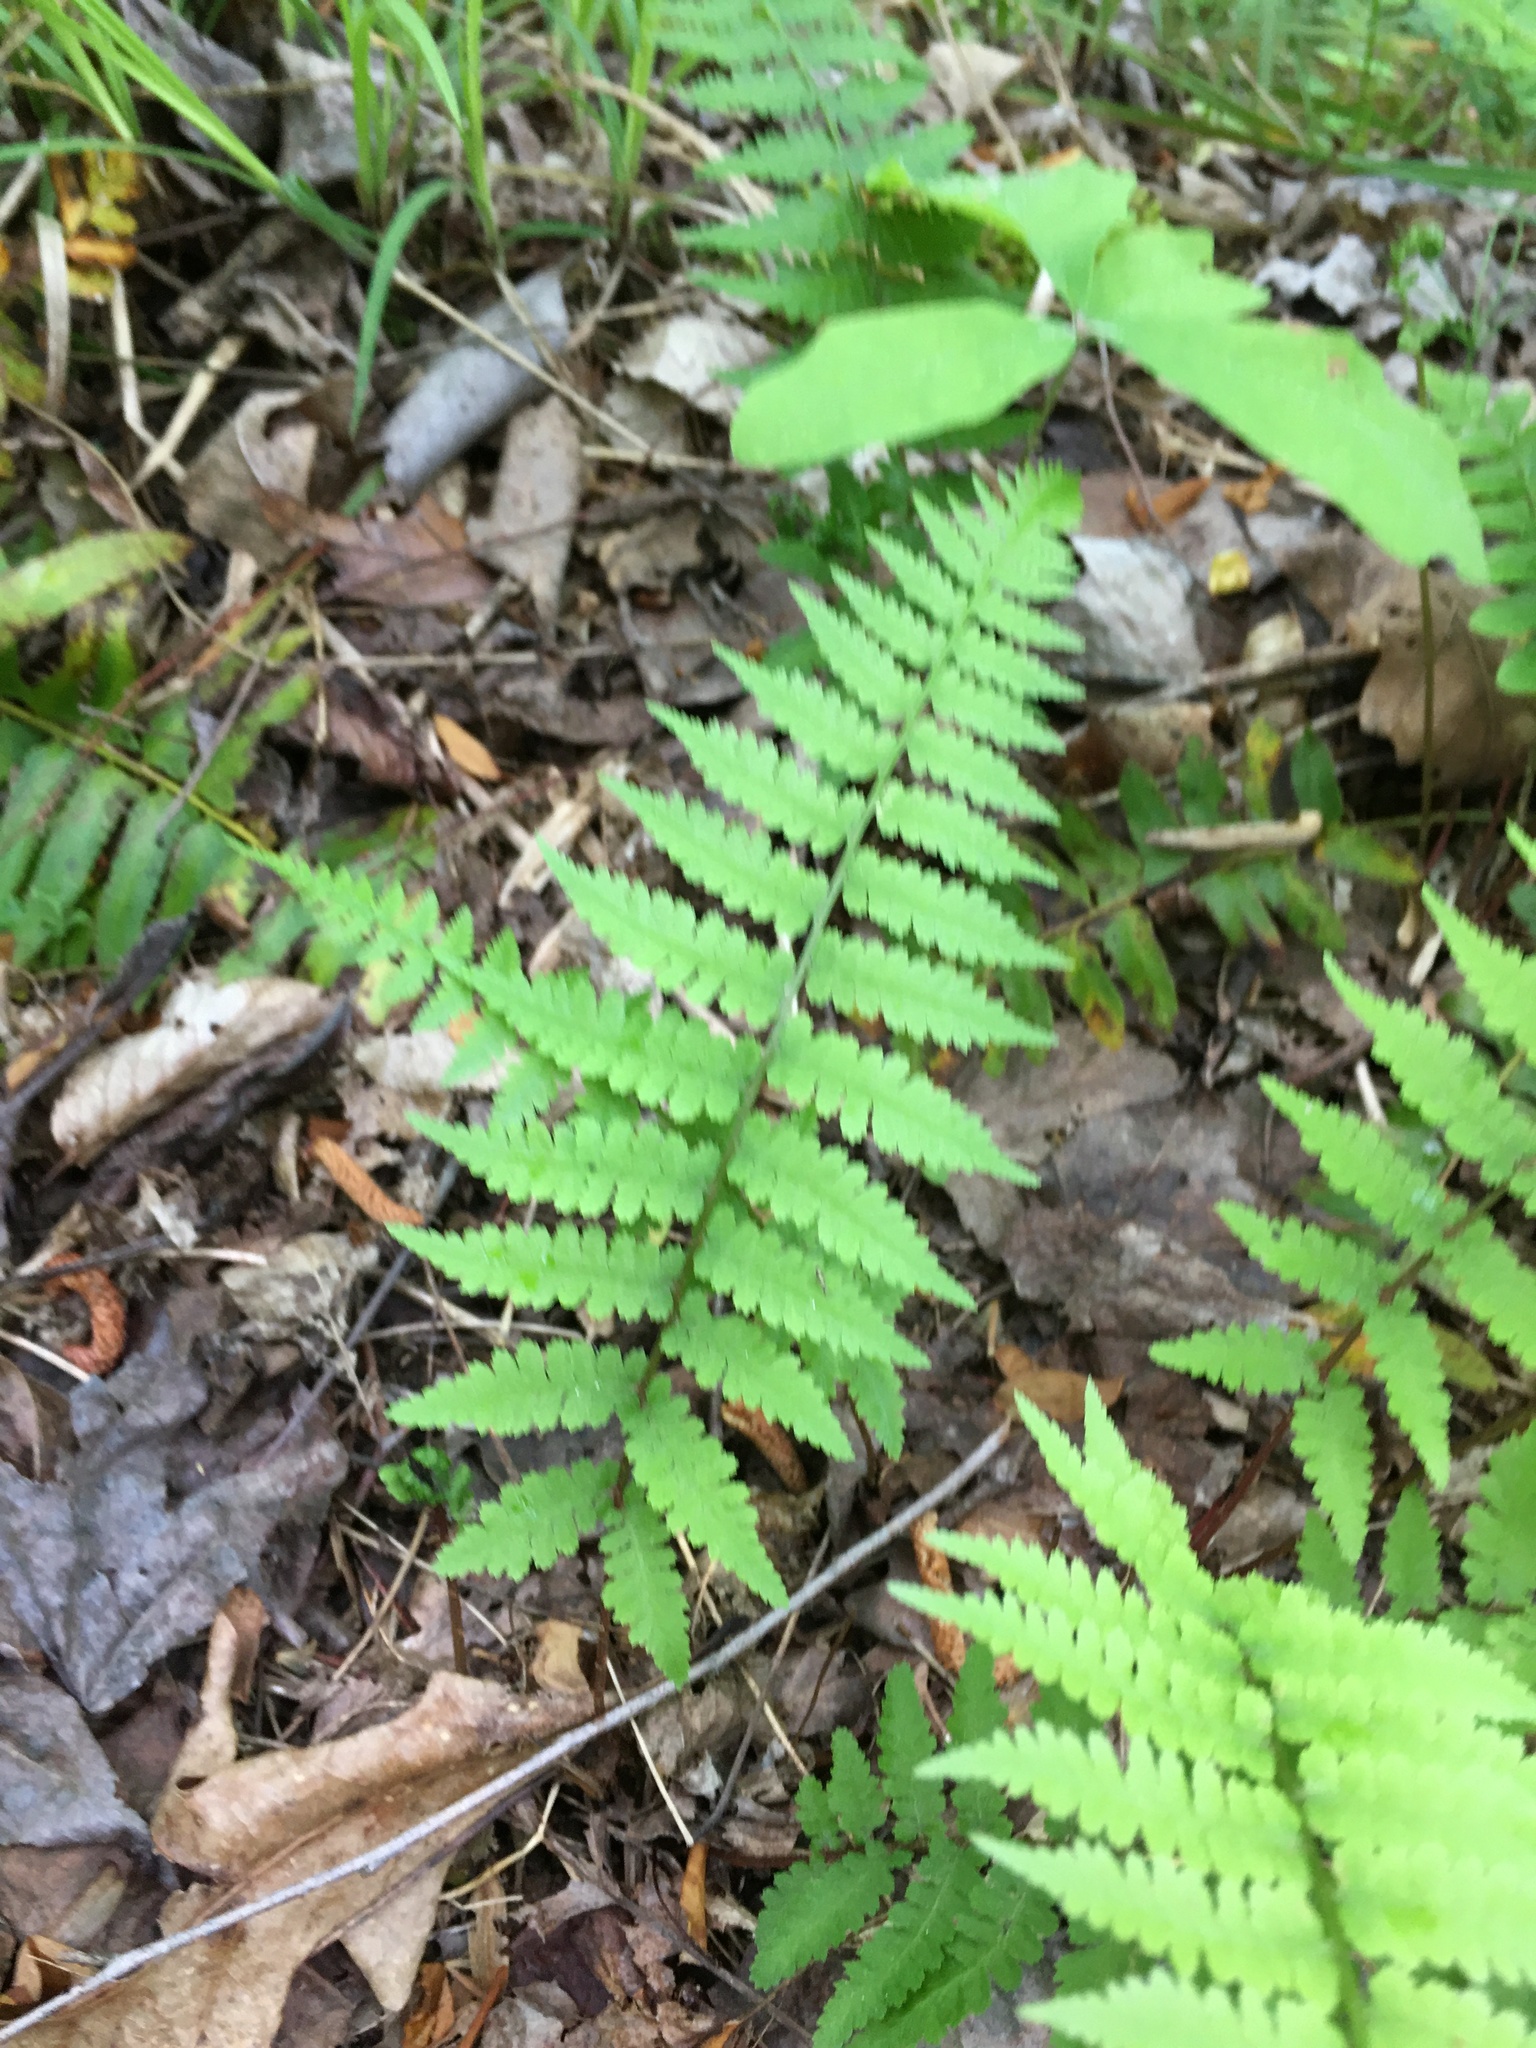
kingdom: Plantae
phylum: Tracheophyta
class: Polypodiopsida
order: Polypodiales
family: Athyriaceae
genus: Athyrium
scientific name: Athyrium asplenioides
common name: Southern lady fern
